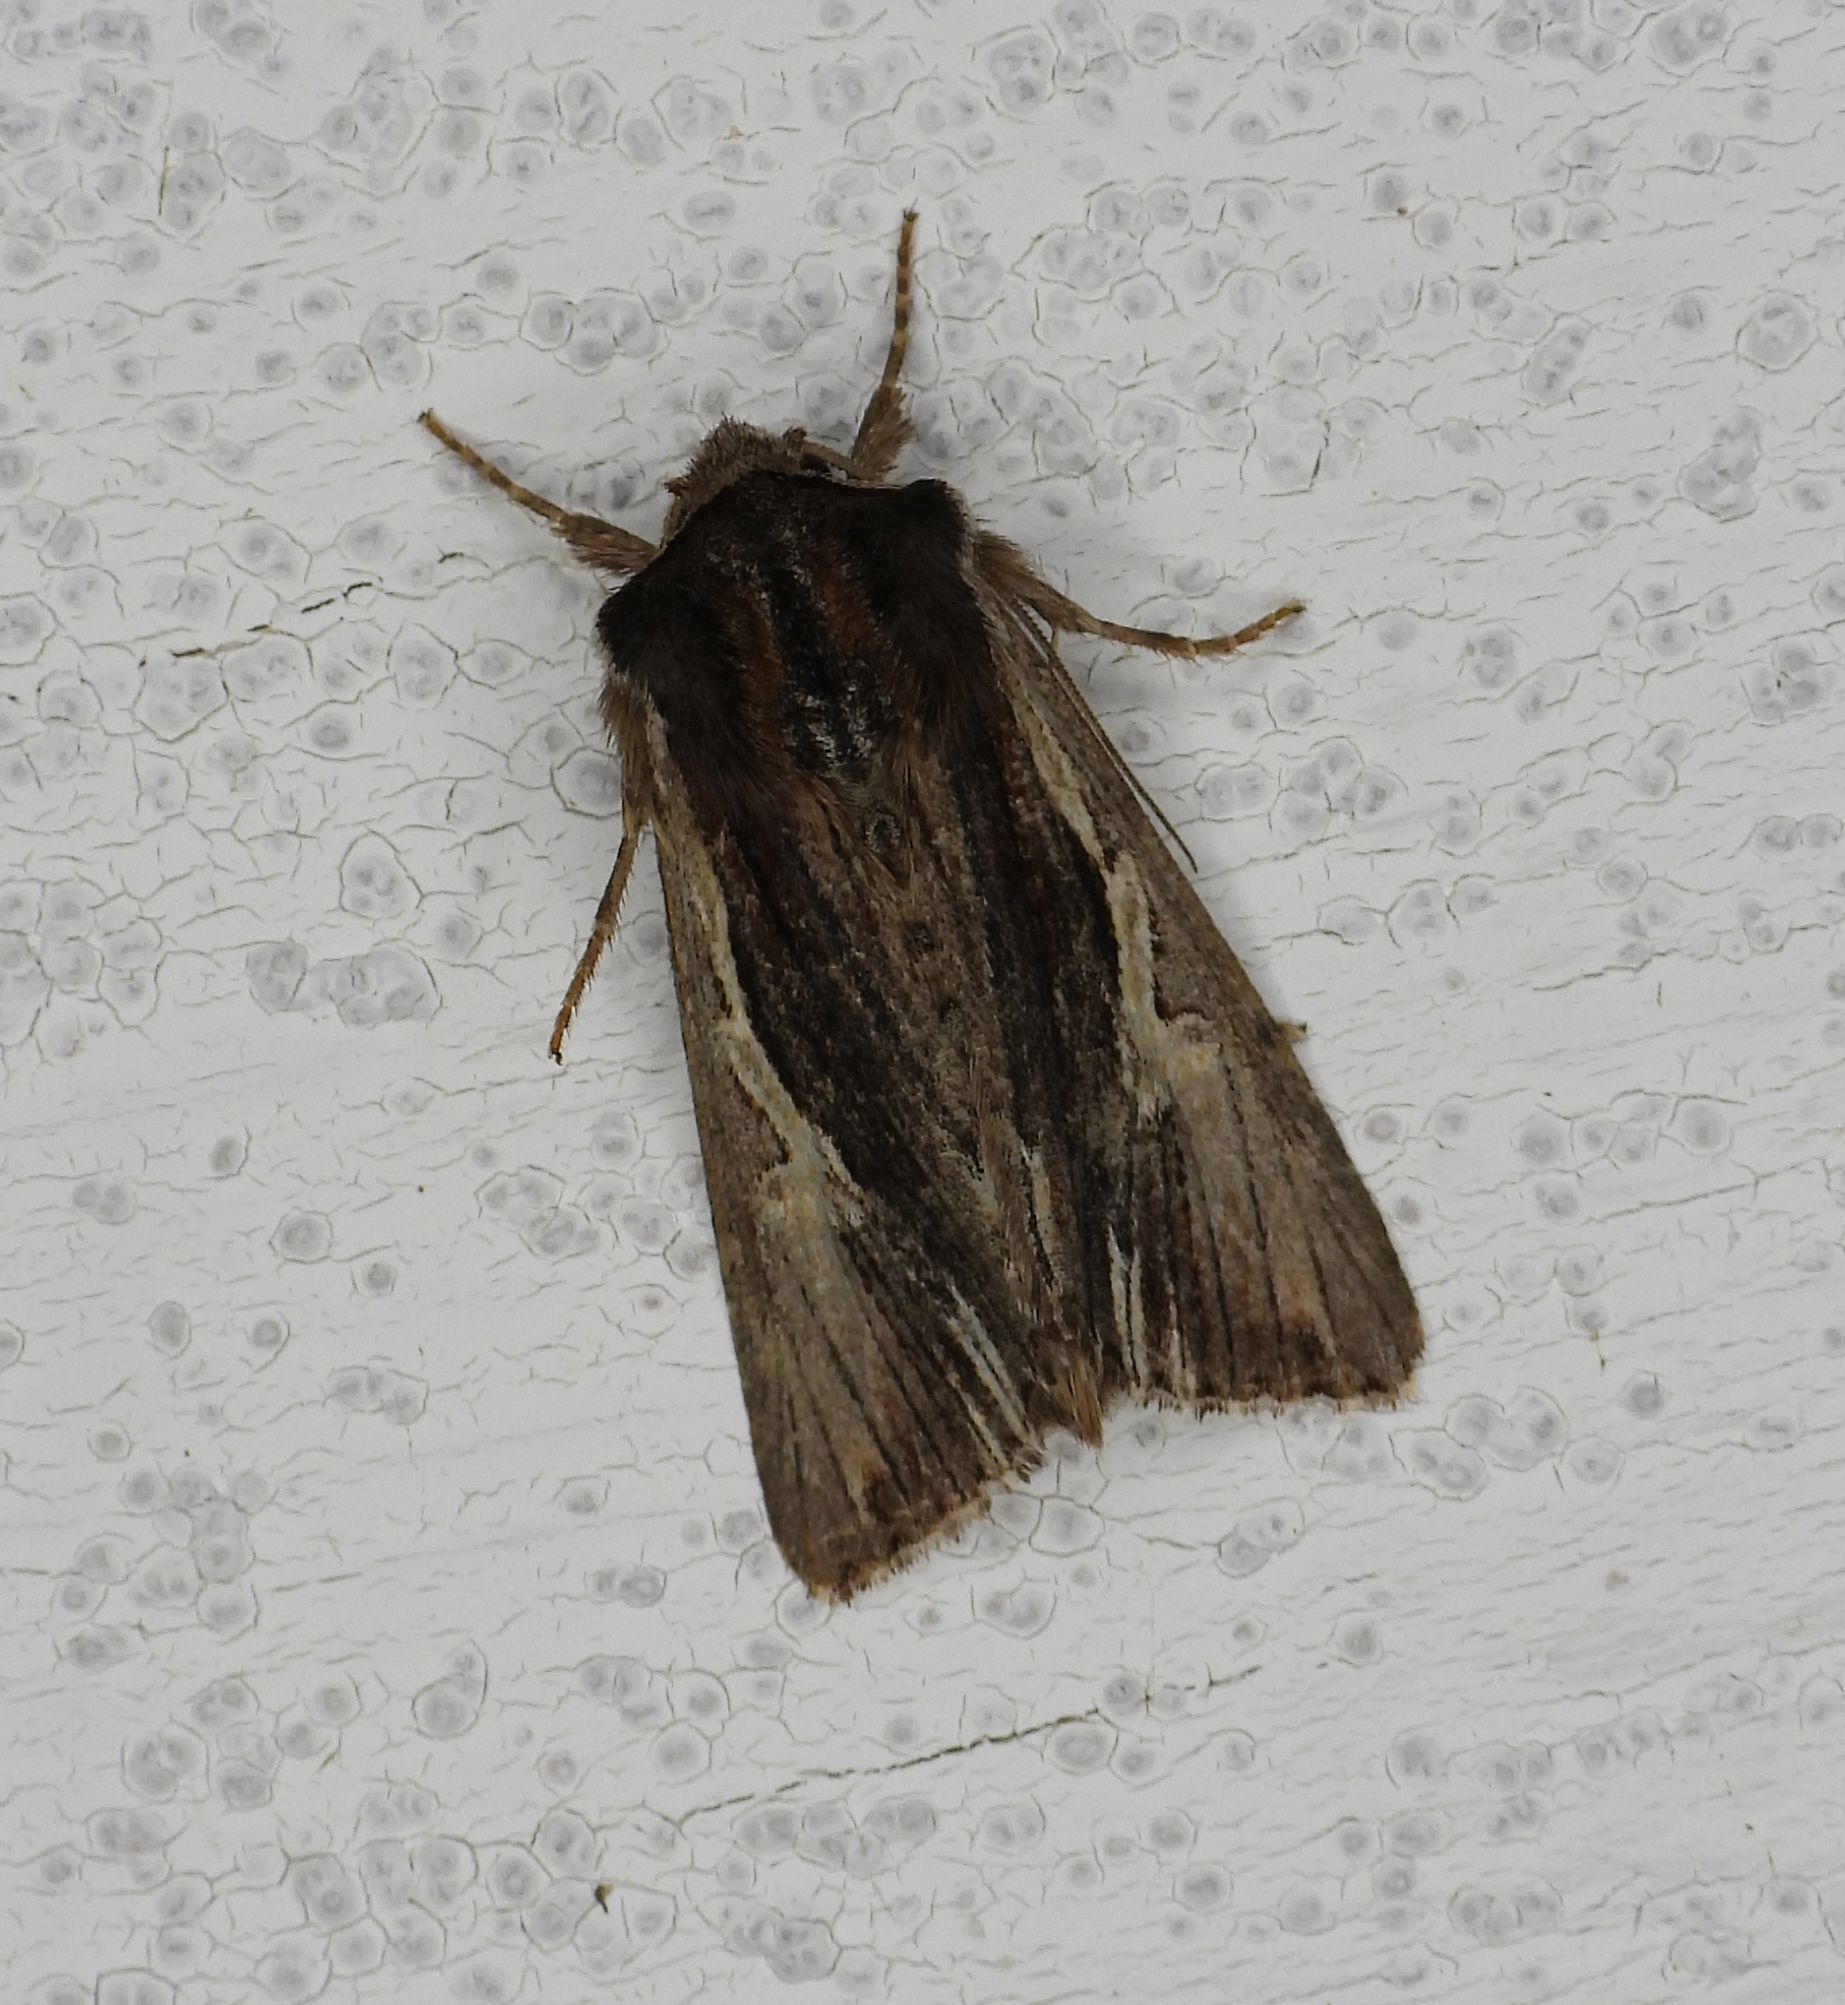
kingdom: Animalia
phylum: Arthropoda
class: Insecta
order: Lepidoptera
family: Noctuidae
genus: Achatia
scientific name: Achatia evicta
